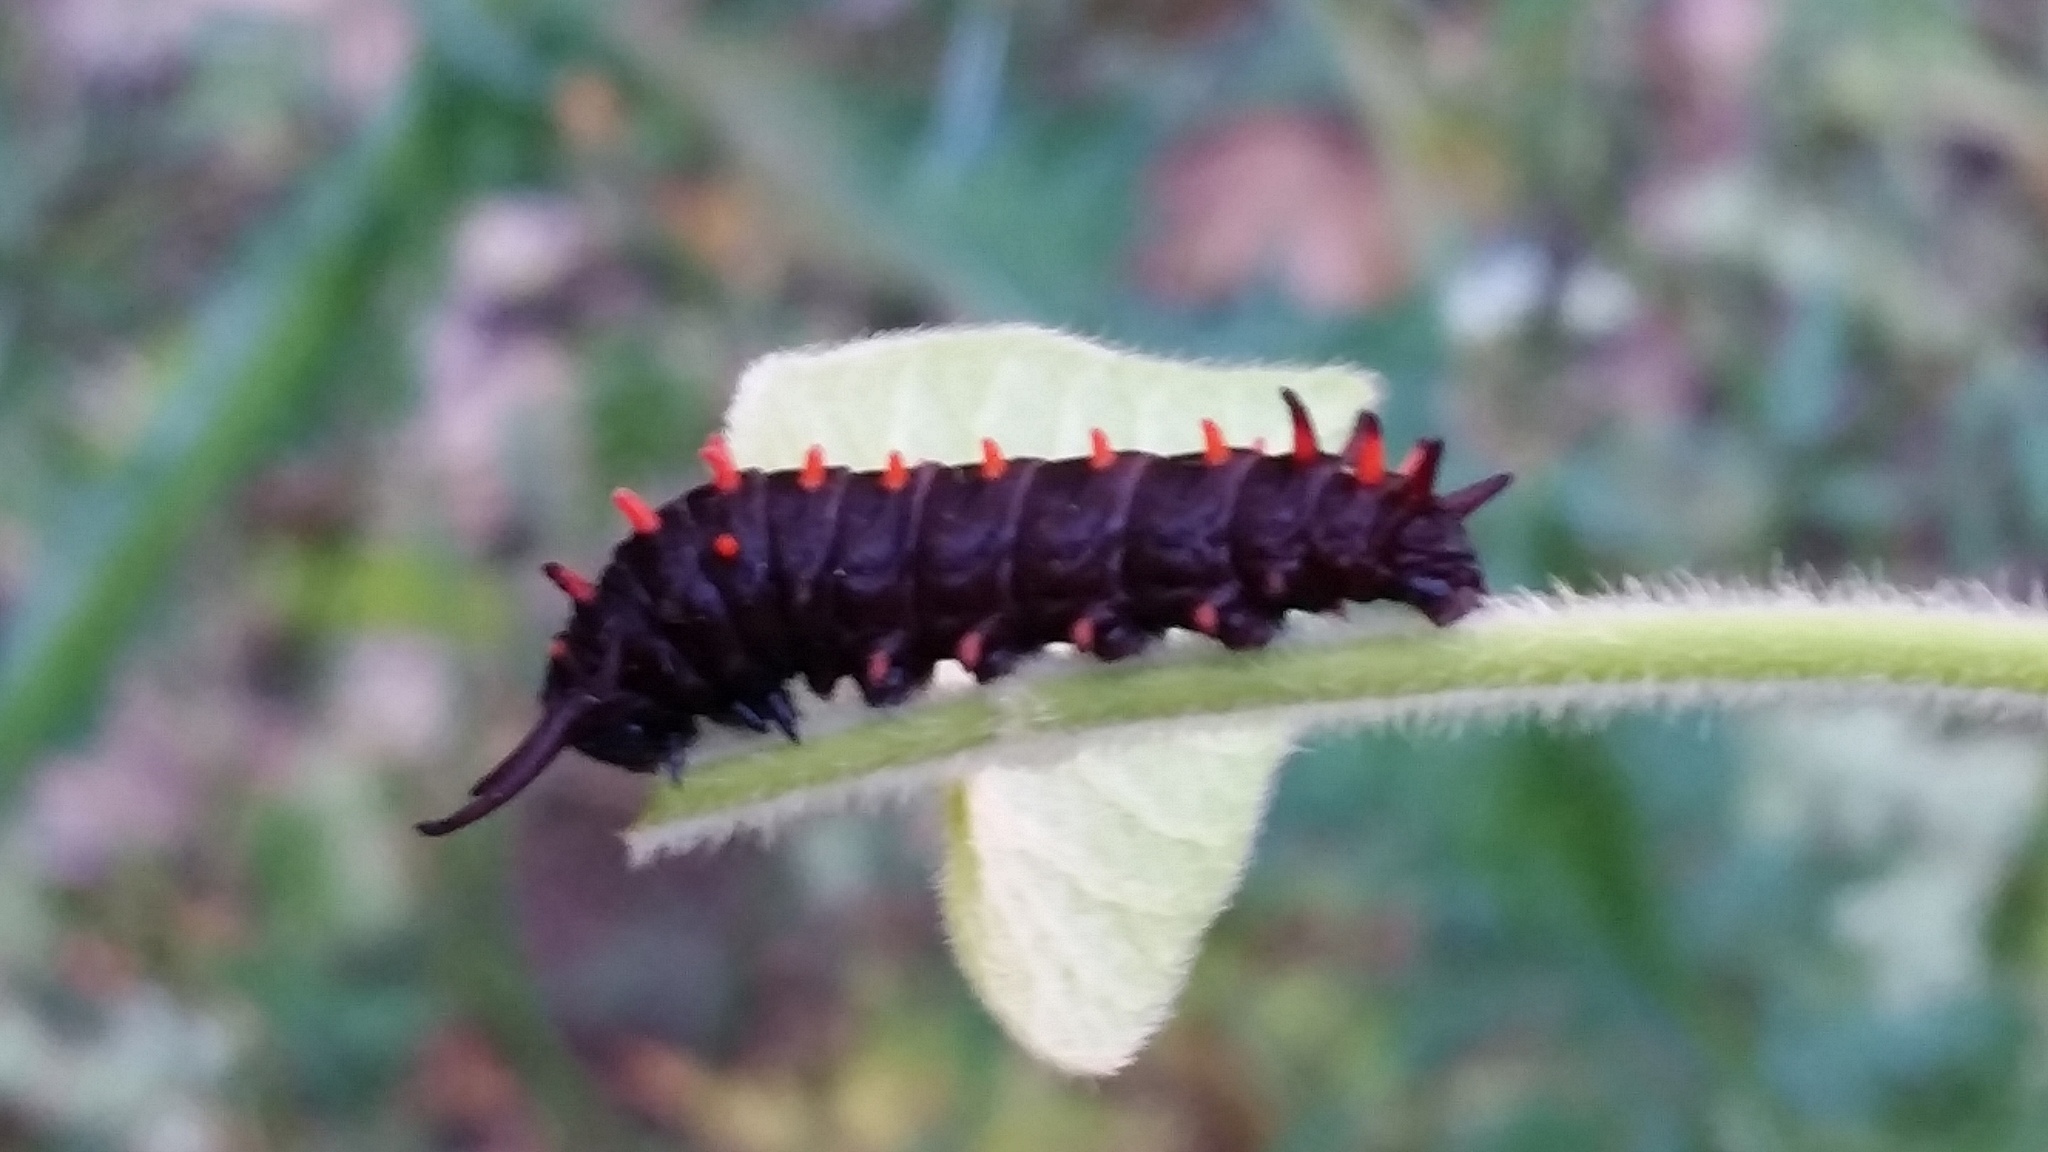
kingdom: Animalia
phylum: Arthropoda
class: Insecta
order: Lepidoptera
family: Papilionidae
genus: Battus
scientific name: Battus philenor
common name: Pipevine swallowtail
